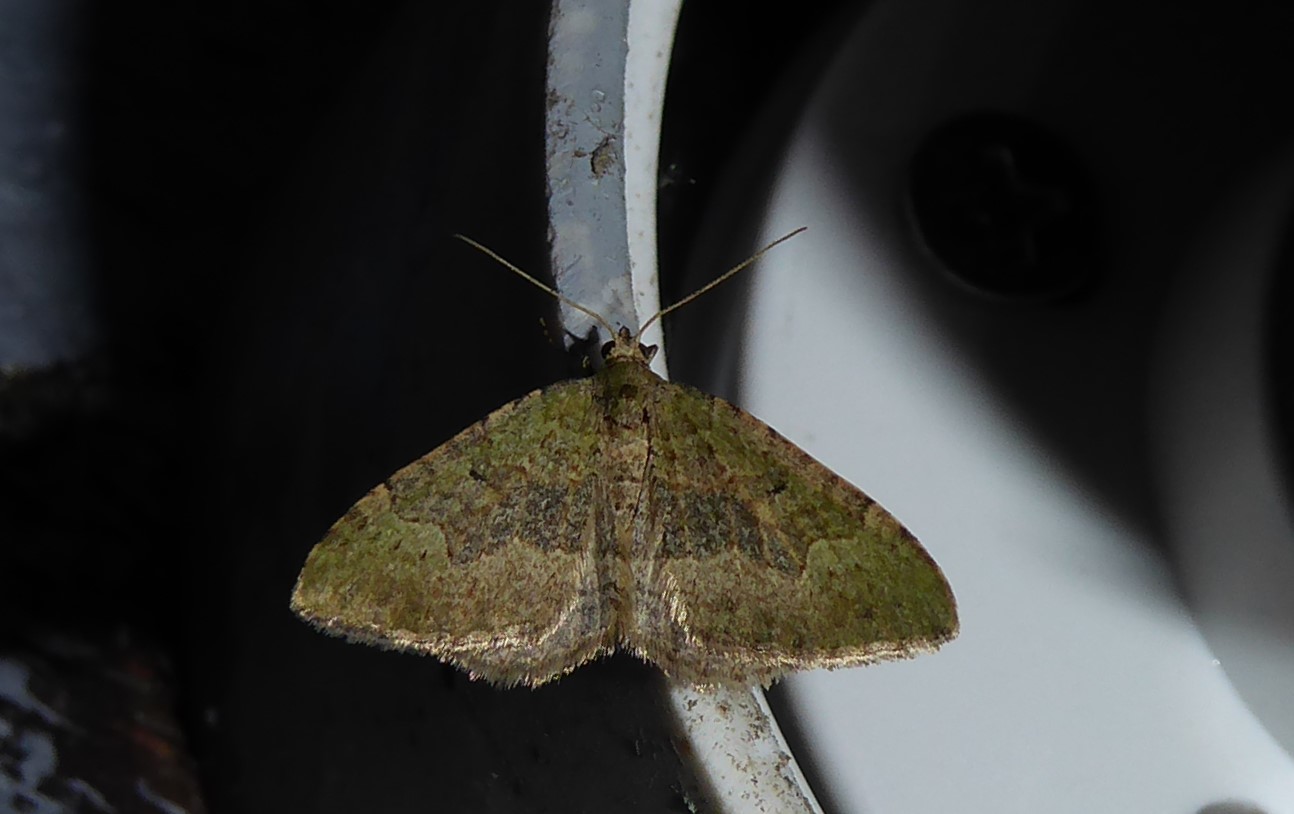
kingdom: Animalia
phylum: Arthropoda
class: Insecta
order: Lepidoptera
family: Geometridae
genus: Epyaxa
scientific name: Epyaxa rosearia
